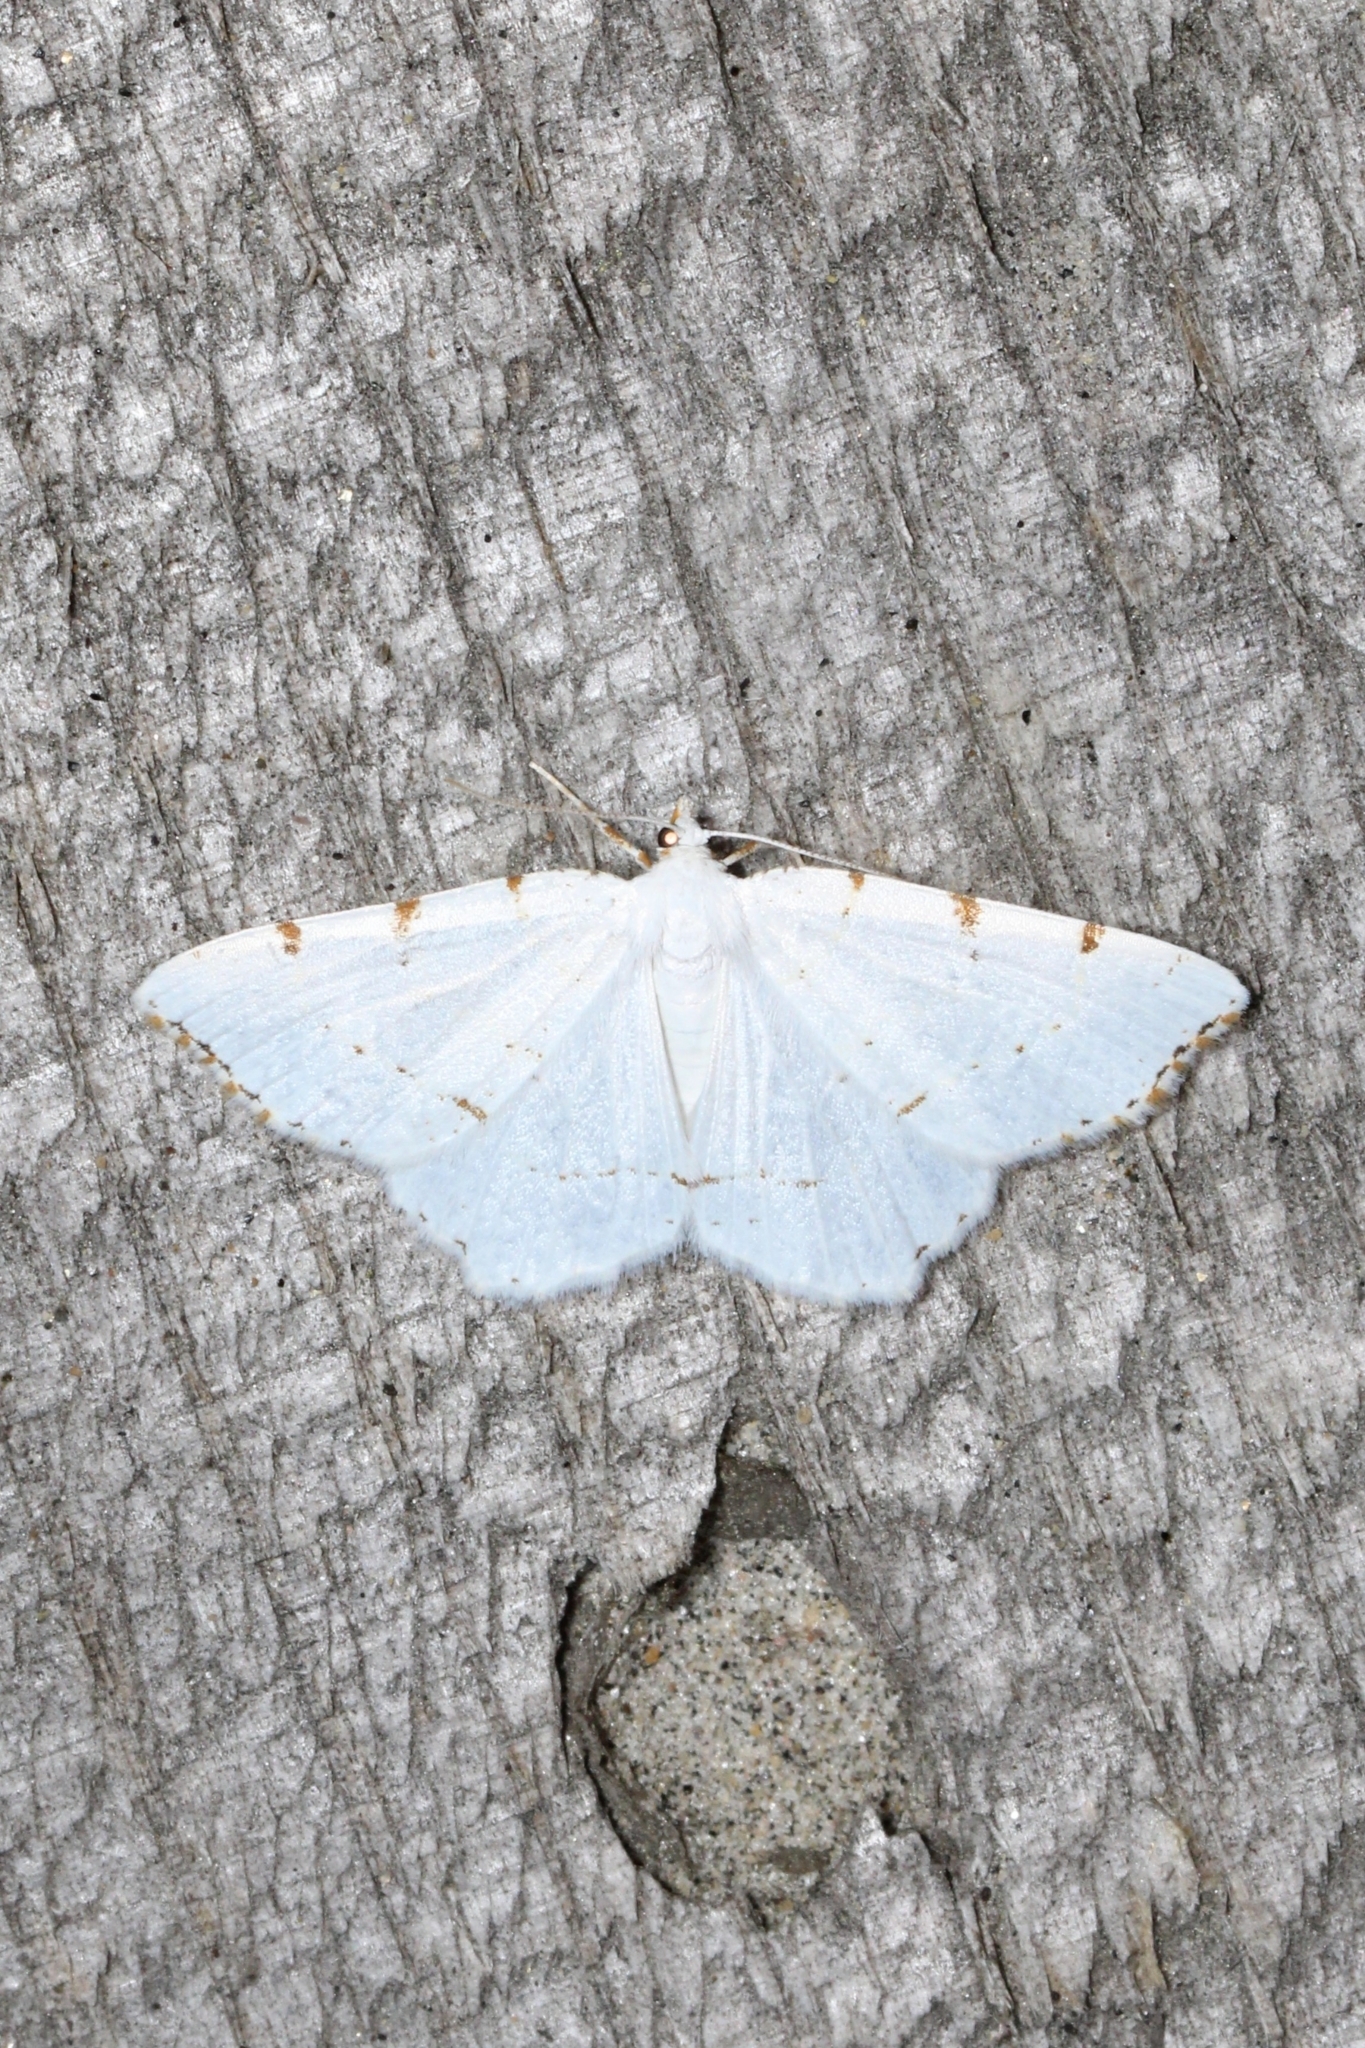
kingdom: Animalia
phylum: Arthropoda
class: Insecta
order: Lepidoptera
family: Geometridae
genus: Macaria
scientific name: Macaria pustularia
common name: Lesser maple spanworm moth
